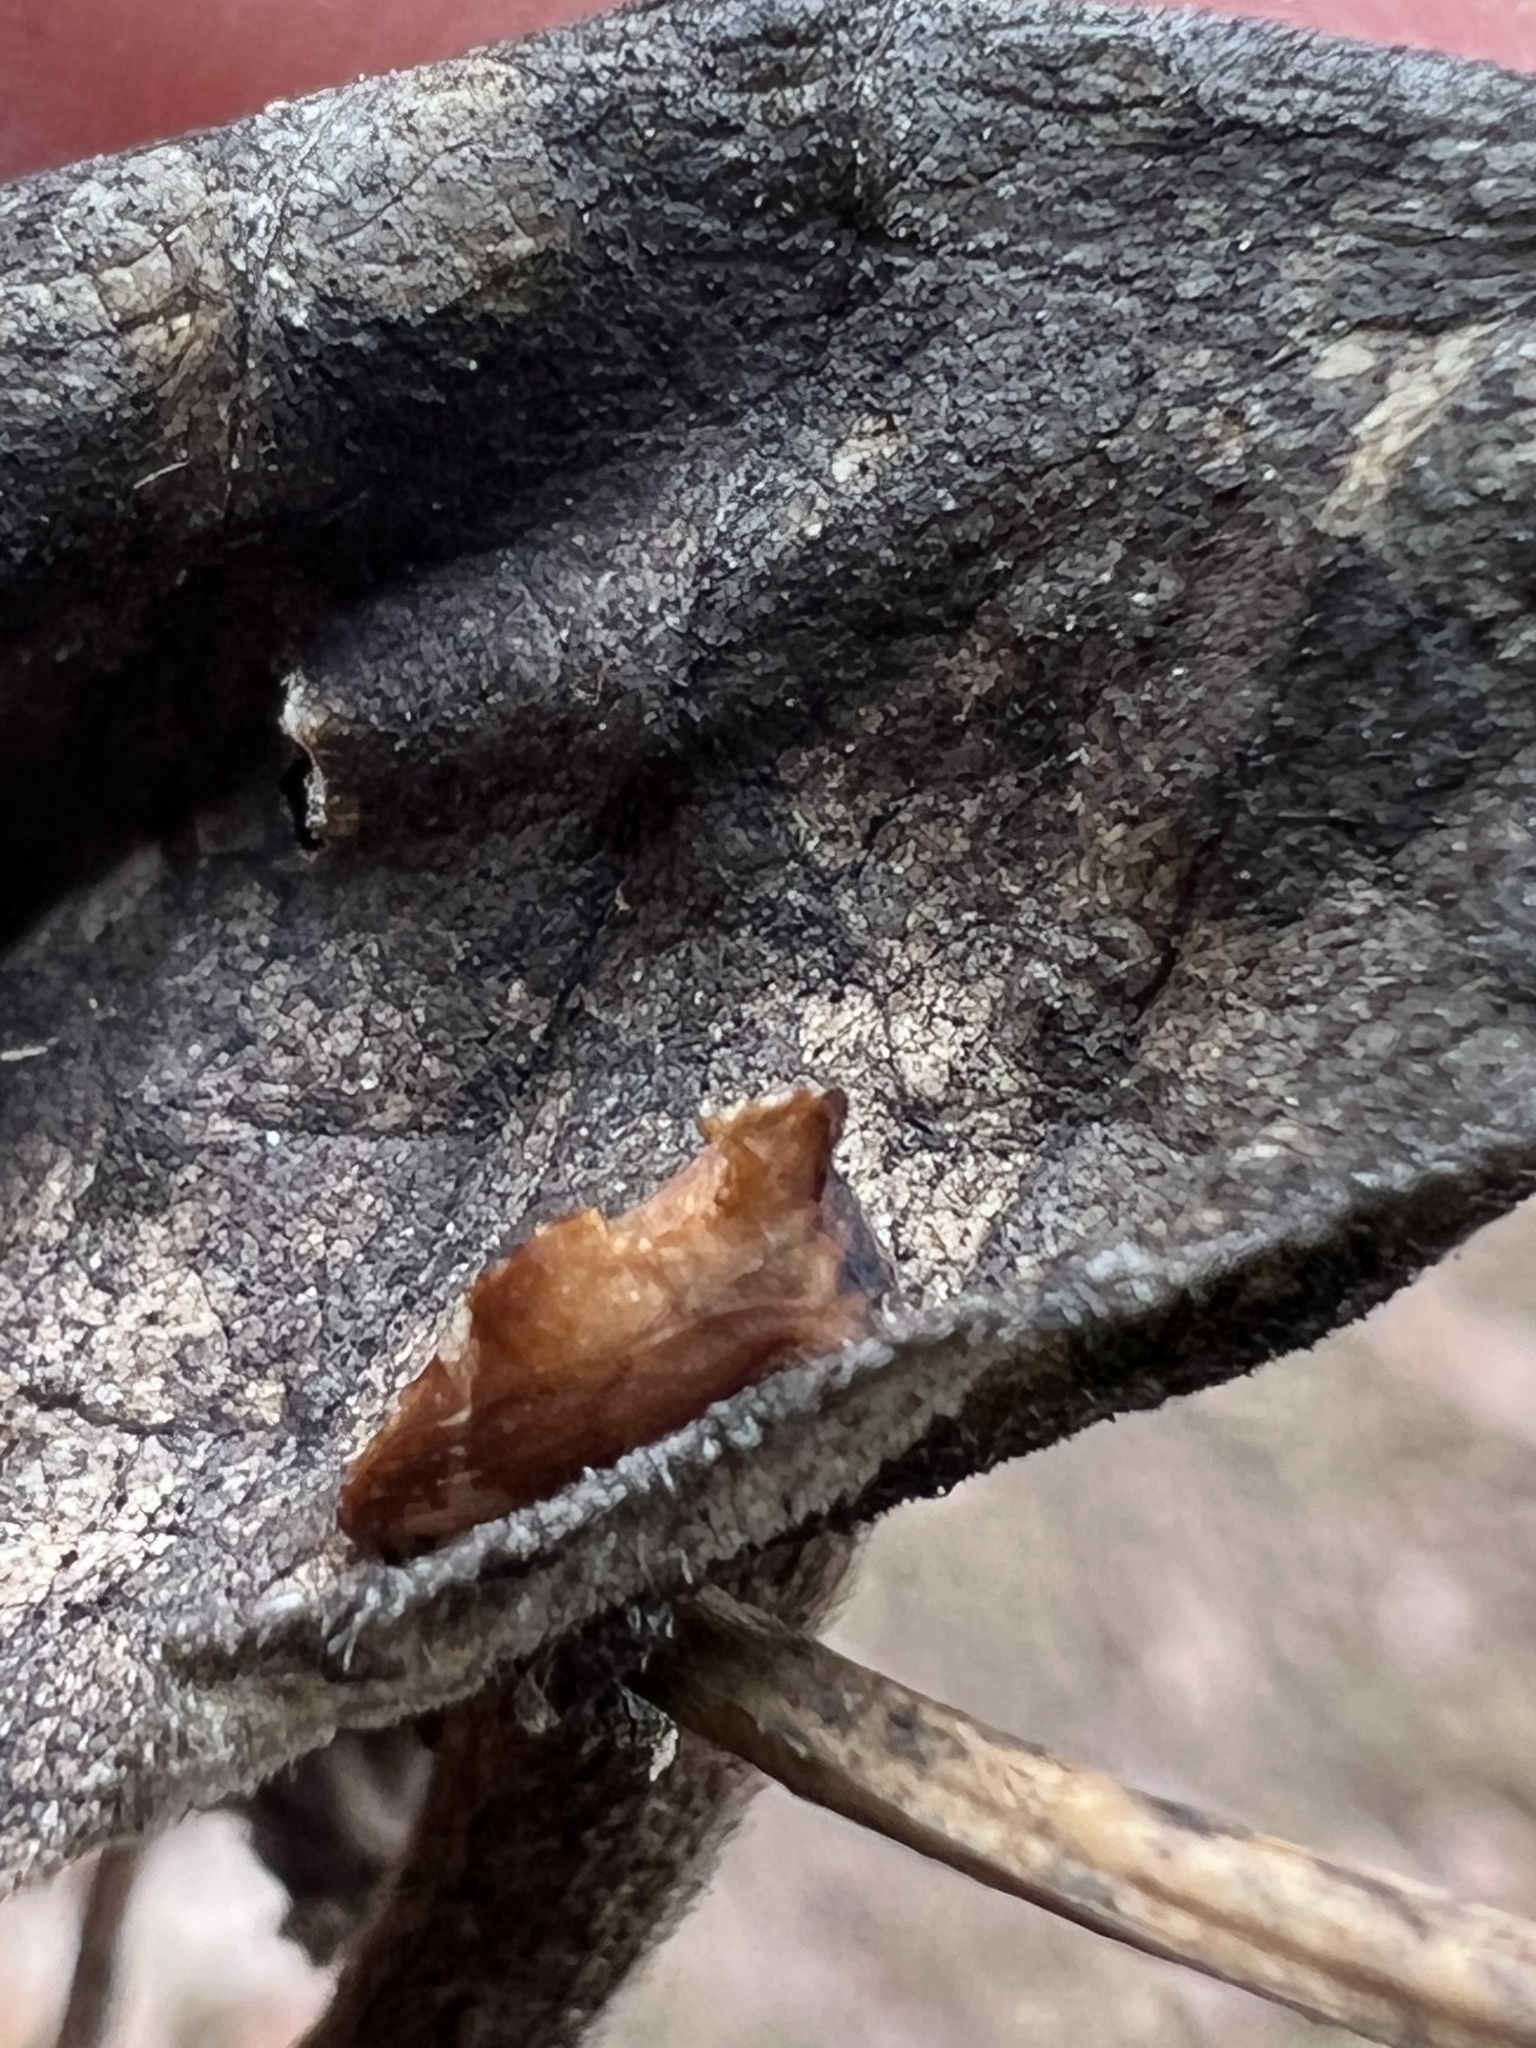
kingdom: Animalia
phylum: Arthropoda
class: Insecta
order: Hemiptera
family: Membracidae
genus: Entylia
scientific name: Entylia carinata
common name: Keeled treehopper
